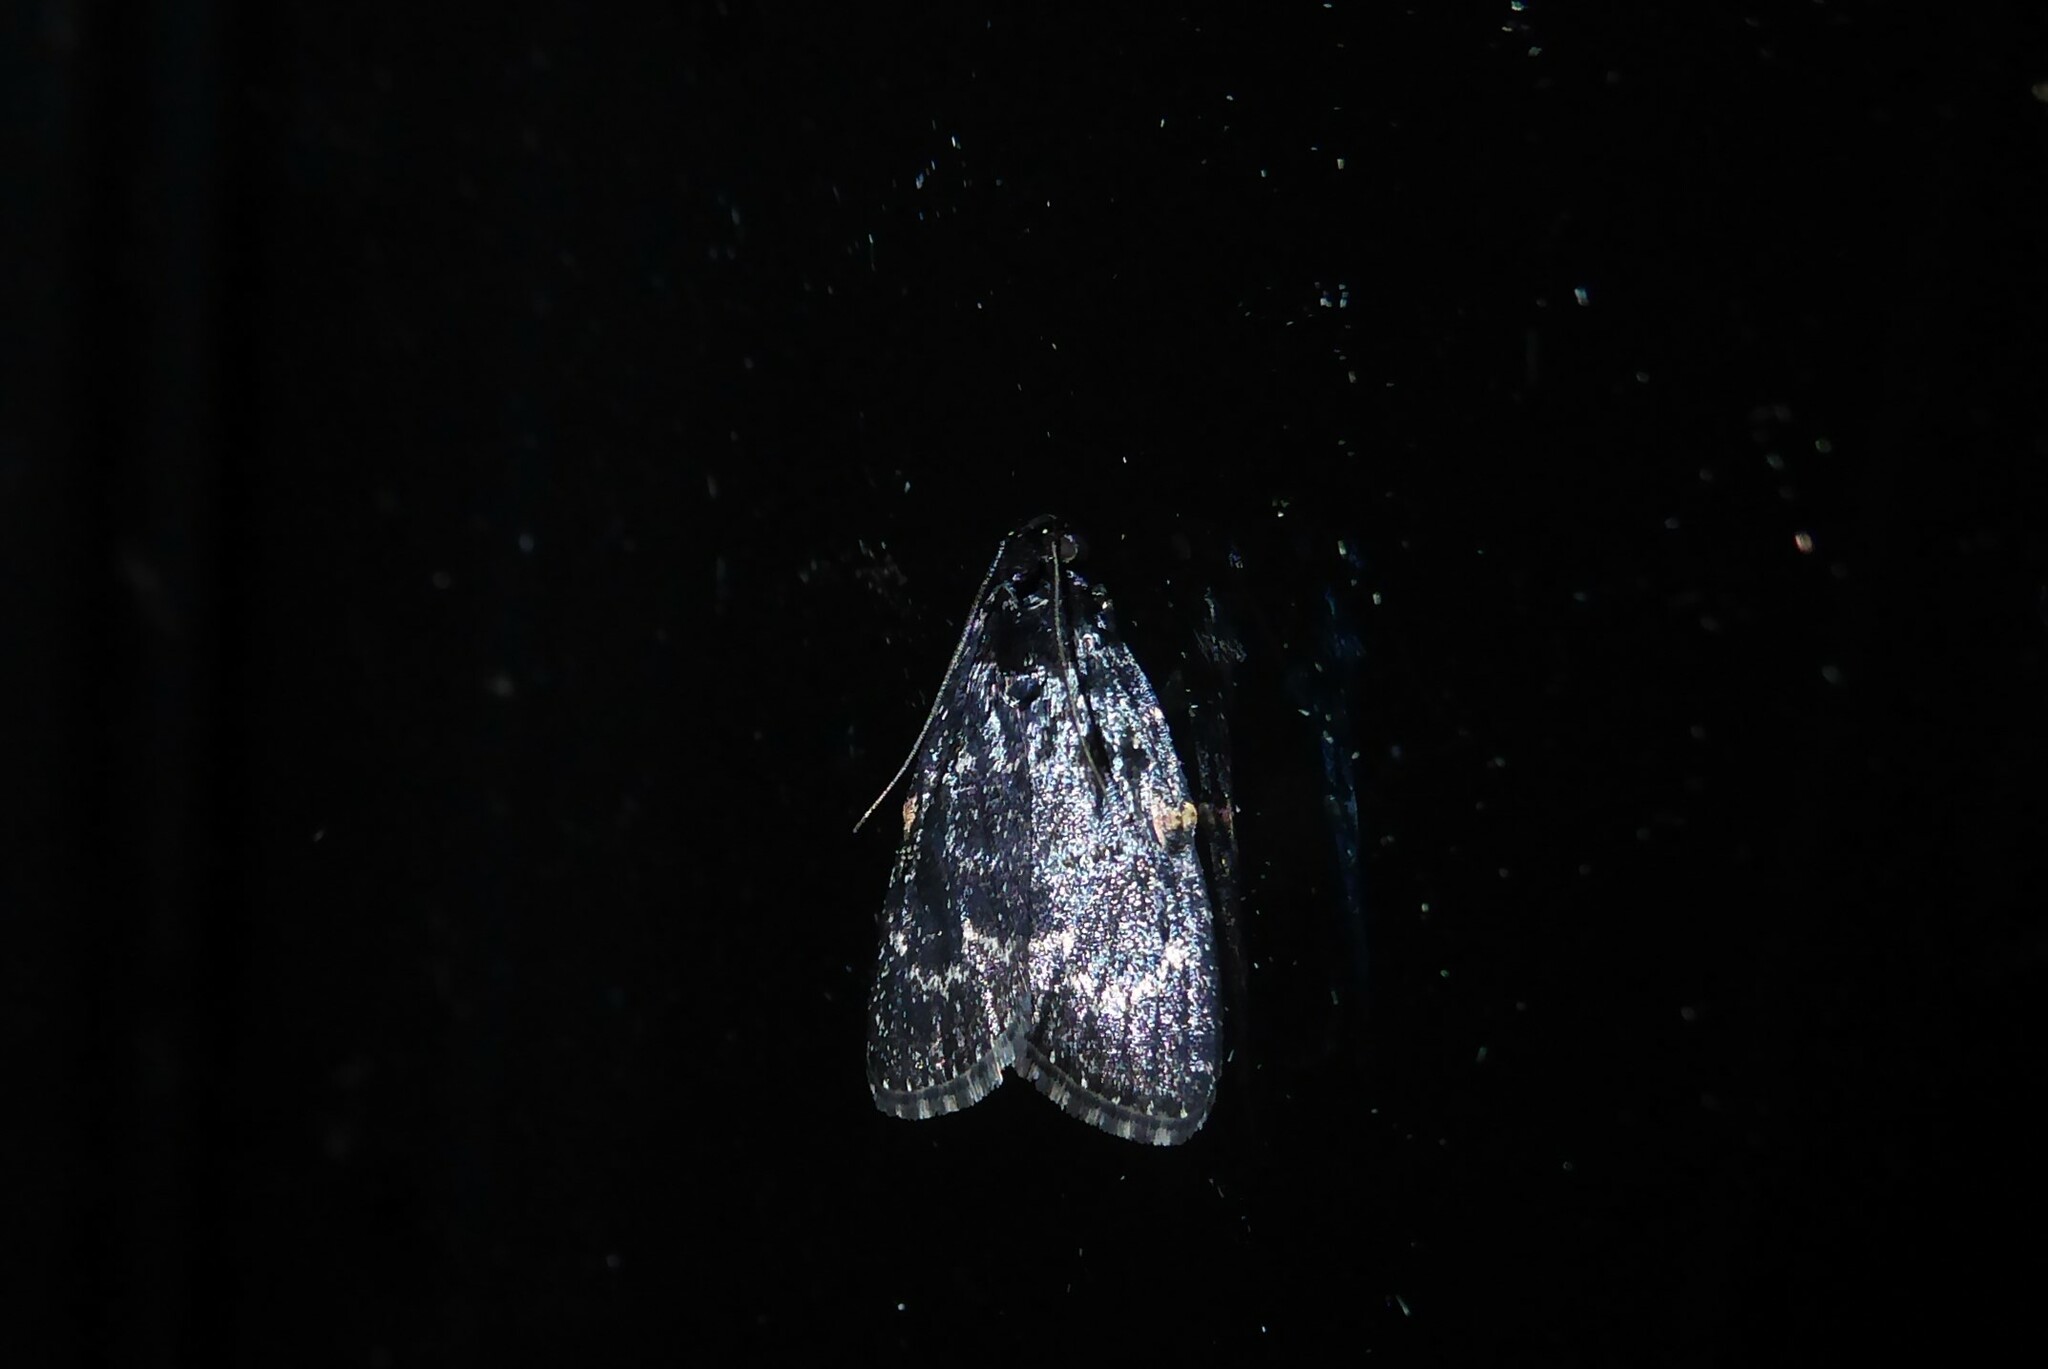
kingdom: Animalia
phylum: Arthropoda
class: Insecta
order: Lepidoptera
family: Pyralidae
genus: Stericta
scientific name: Stericta carbonalis
